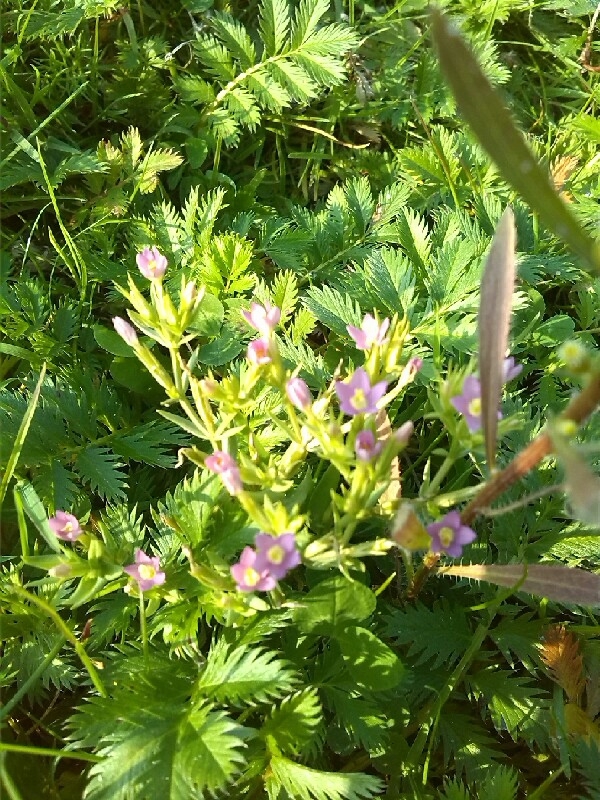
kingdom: Plantae
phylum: Tracheophyta
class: Magnoliopsida
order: Gentianales
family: Gentianaceae
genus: Centaurium
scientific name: Centaurium pulchellum
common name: Lesser centaury
